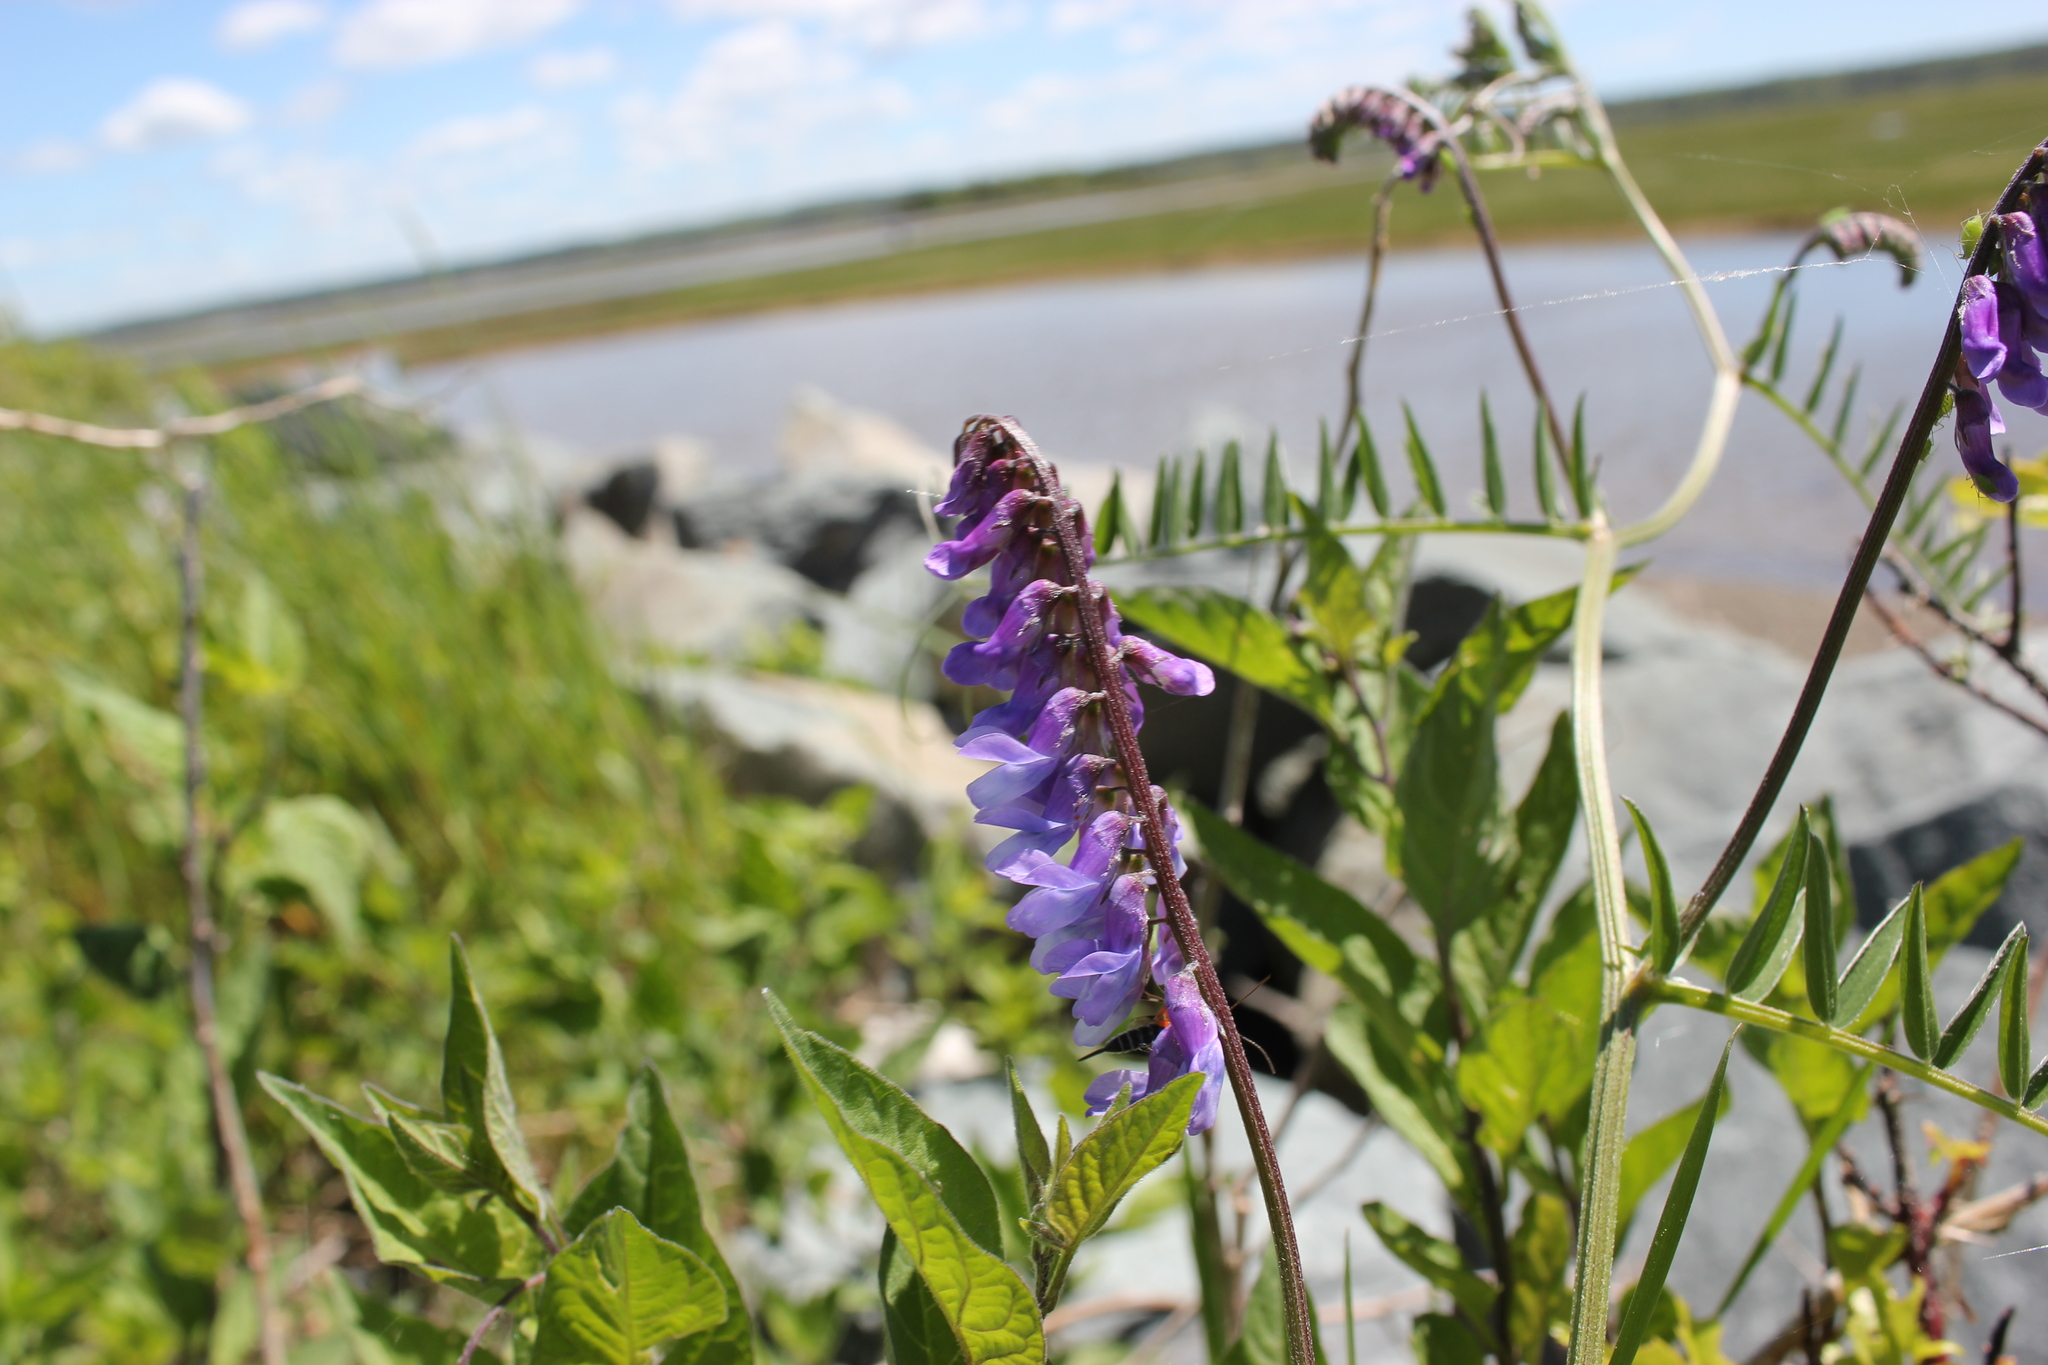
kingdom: Plantae
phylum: Tracheophyta
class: Magnoliopsida
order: Fabales
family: Fabaceae
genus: Vicia
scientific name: Vicia cracca
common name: Bird vetch
